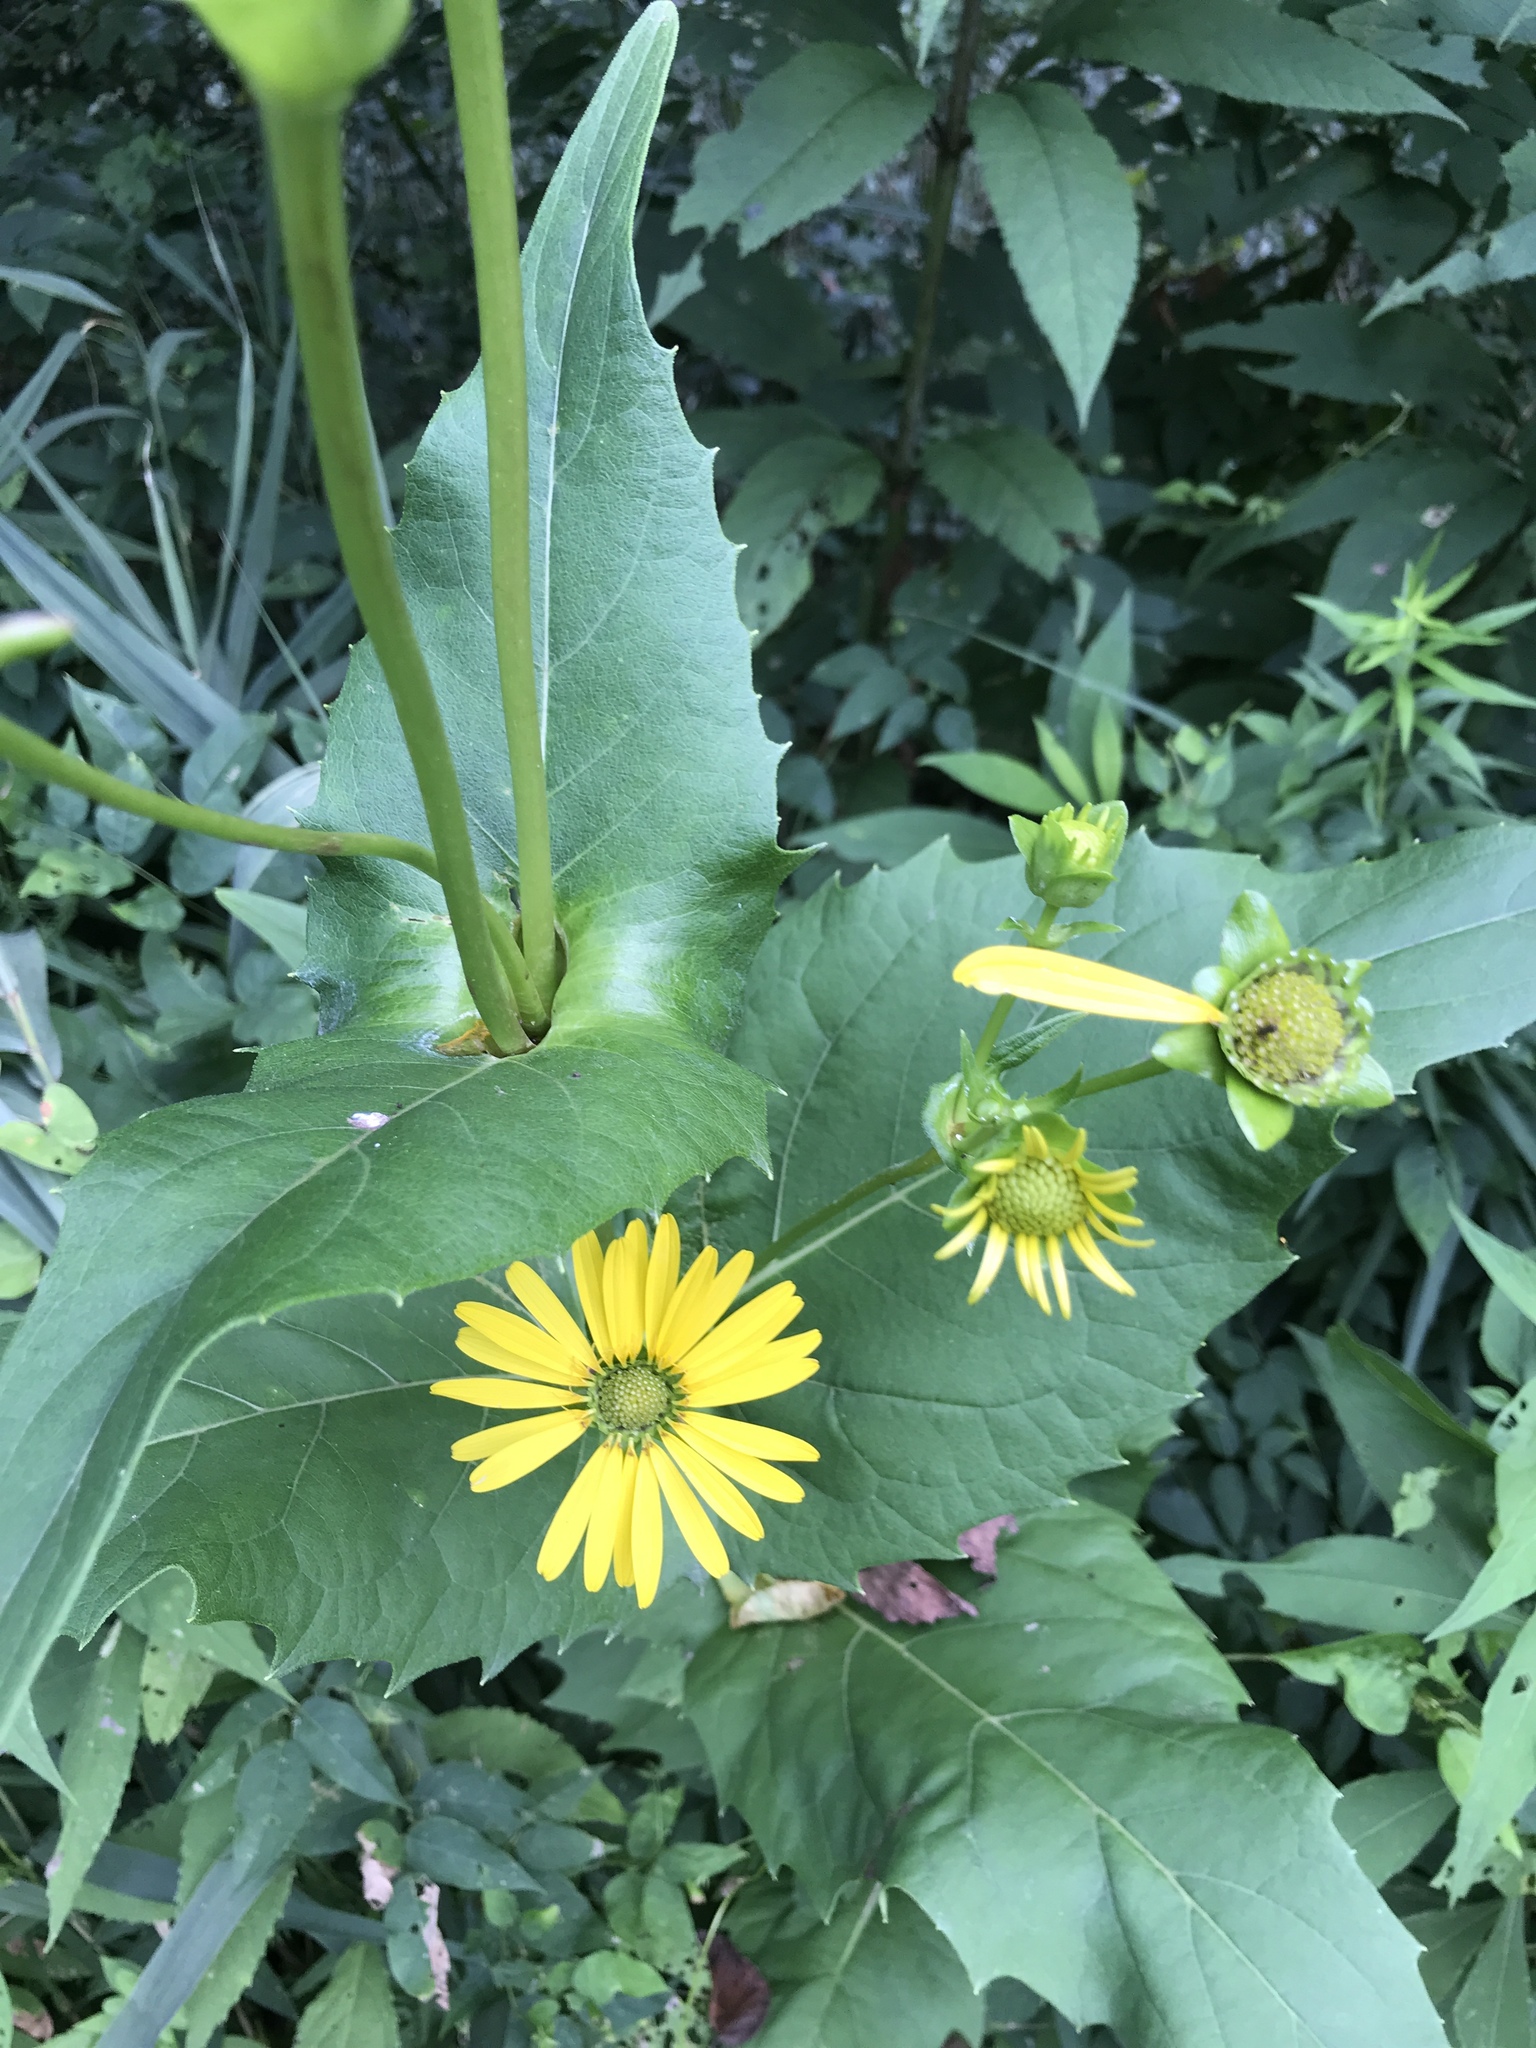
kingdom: Plantae
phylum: Tracheophyta
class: Magnoliopsida
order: Asterales
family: Asteraceae
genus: Silphium
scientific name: Silphium perfoliatum
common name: Cup-plant
